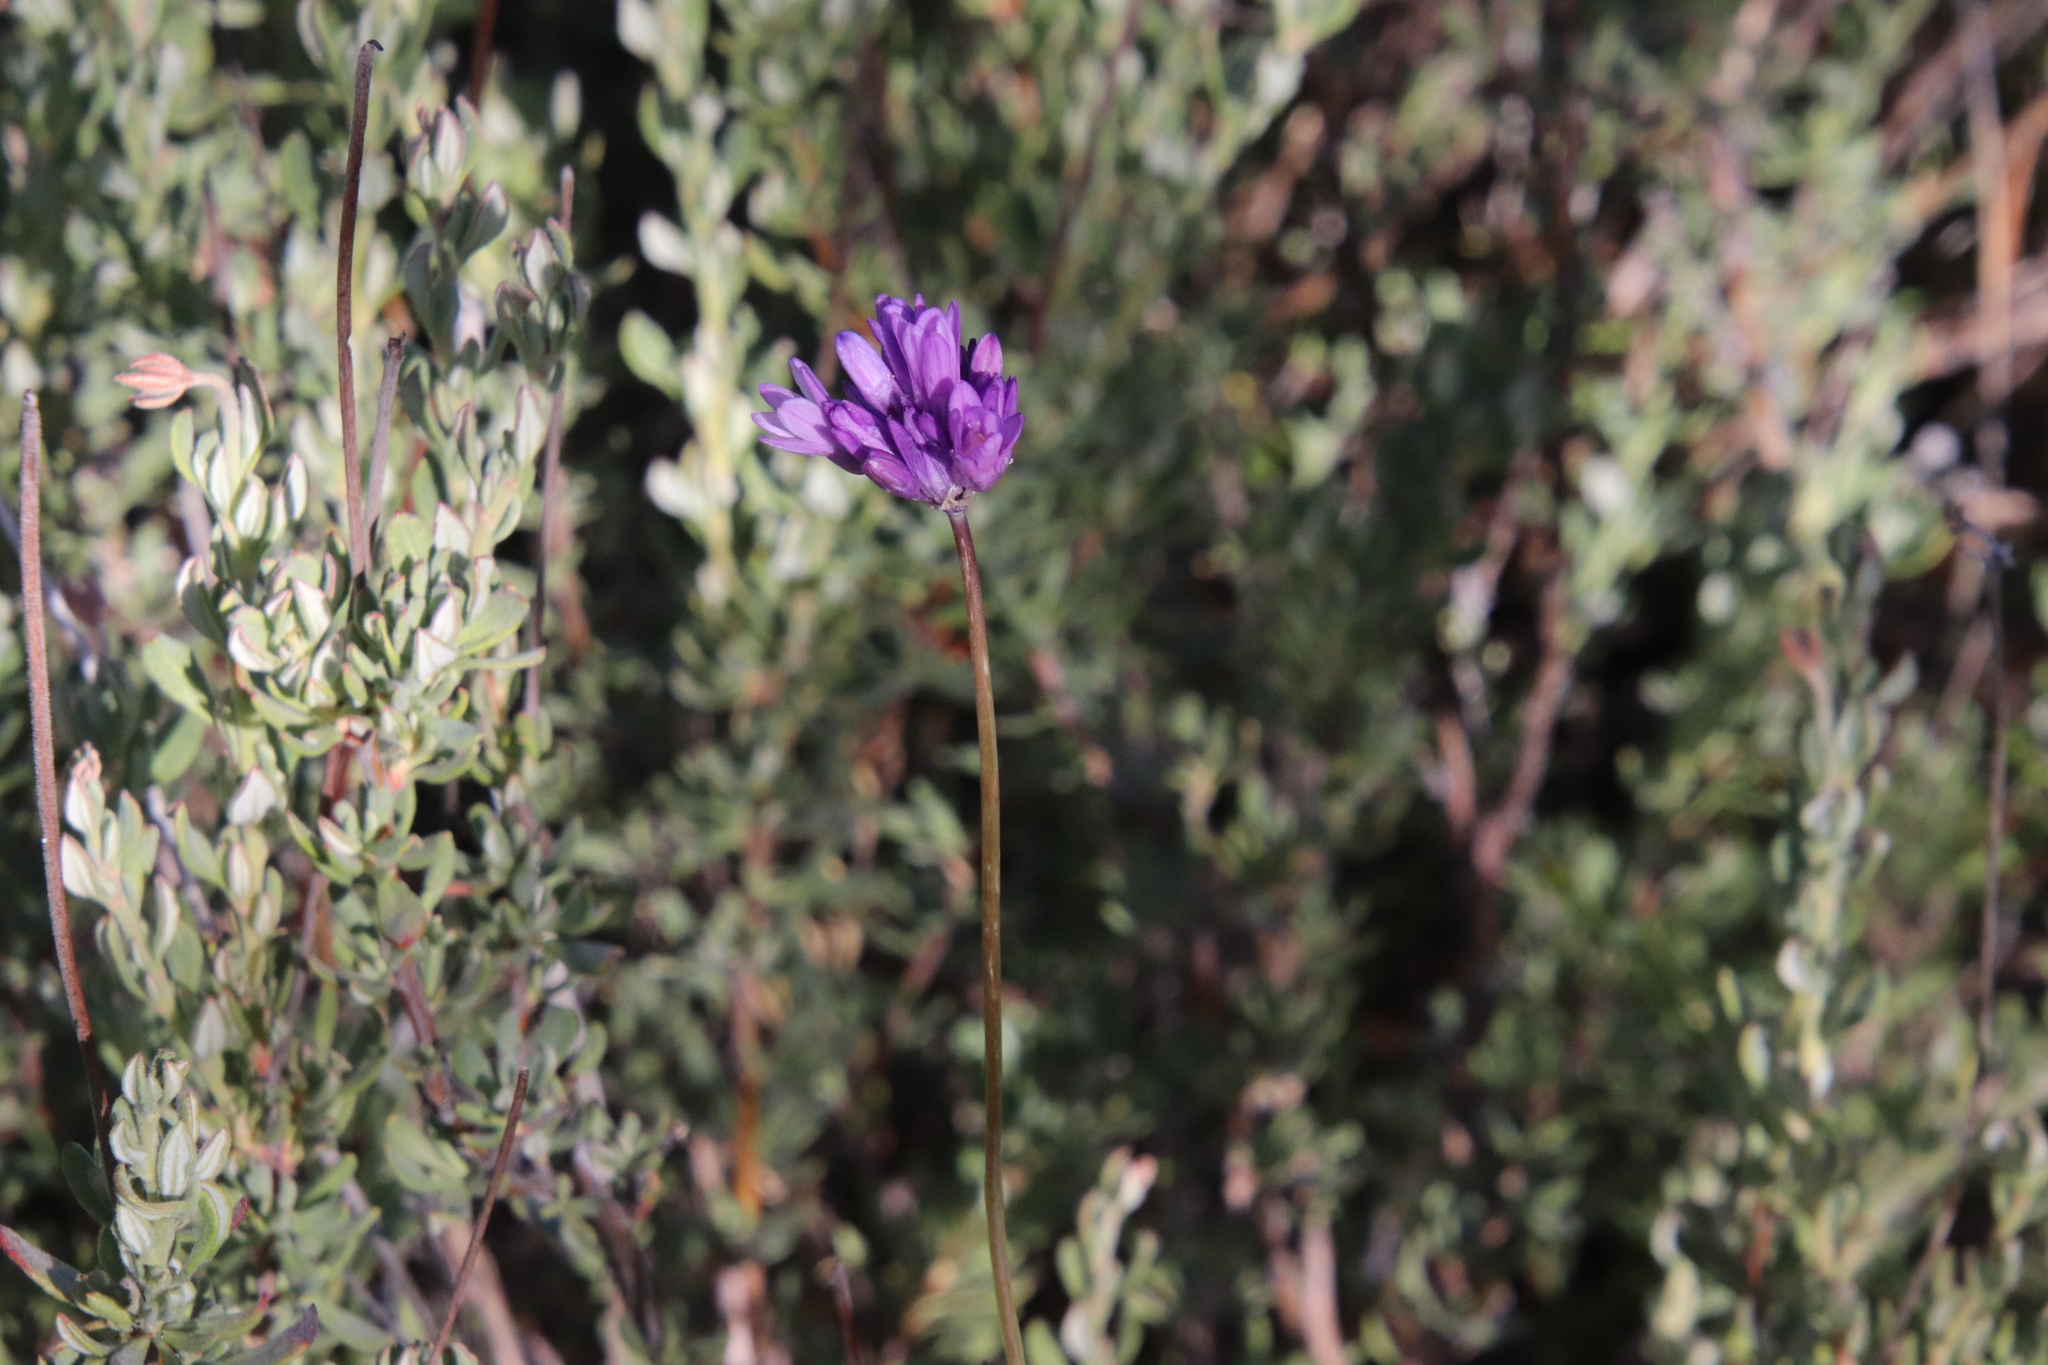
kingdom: Plantae
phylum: Tracheophyta
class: Liliopsida
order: Asparagales
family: Asparagaceae
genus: Dipterostemon
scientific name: Dipterostemon capitatus
